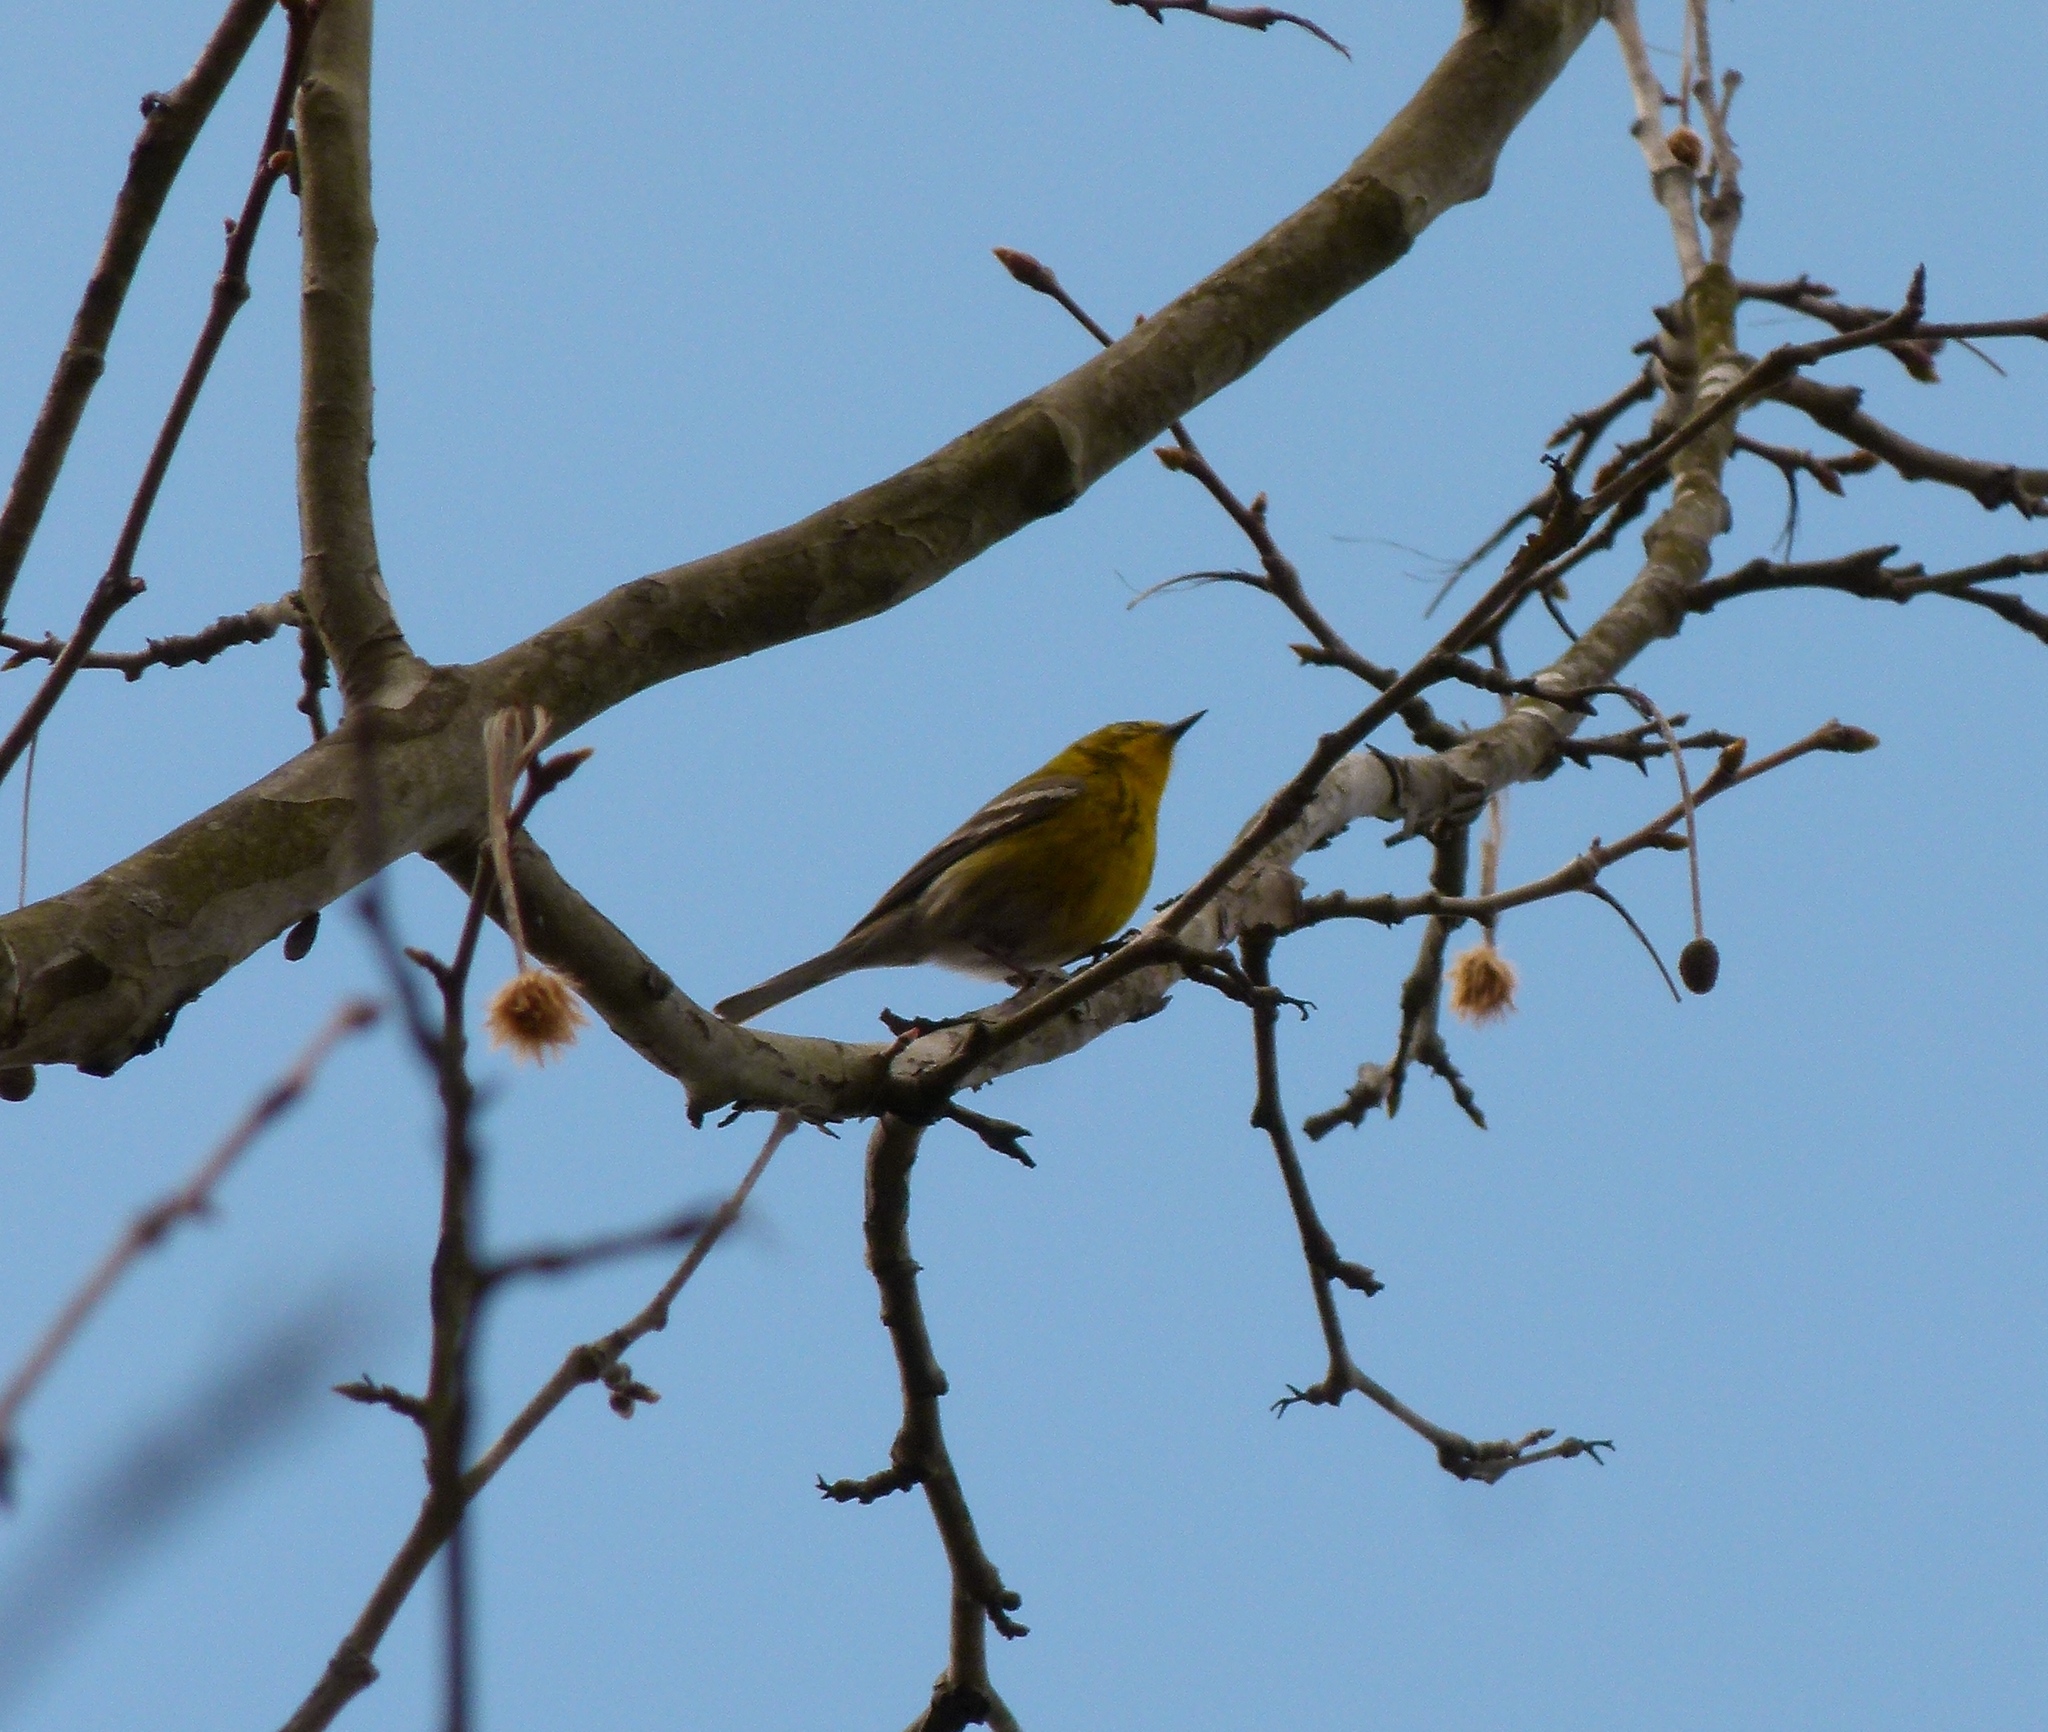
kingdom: Animalia
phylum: Chordata
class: Aves
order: Passeriformes
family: Parulidae
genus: Setophaga
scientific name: Setophaga pinus
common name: Pine warbler
